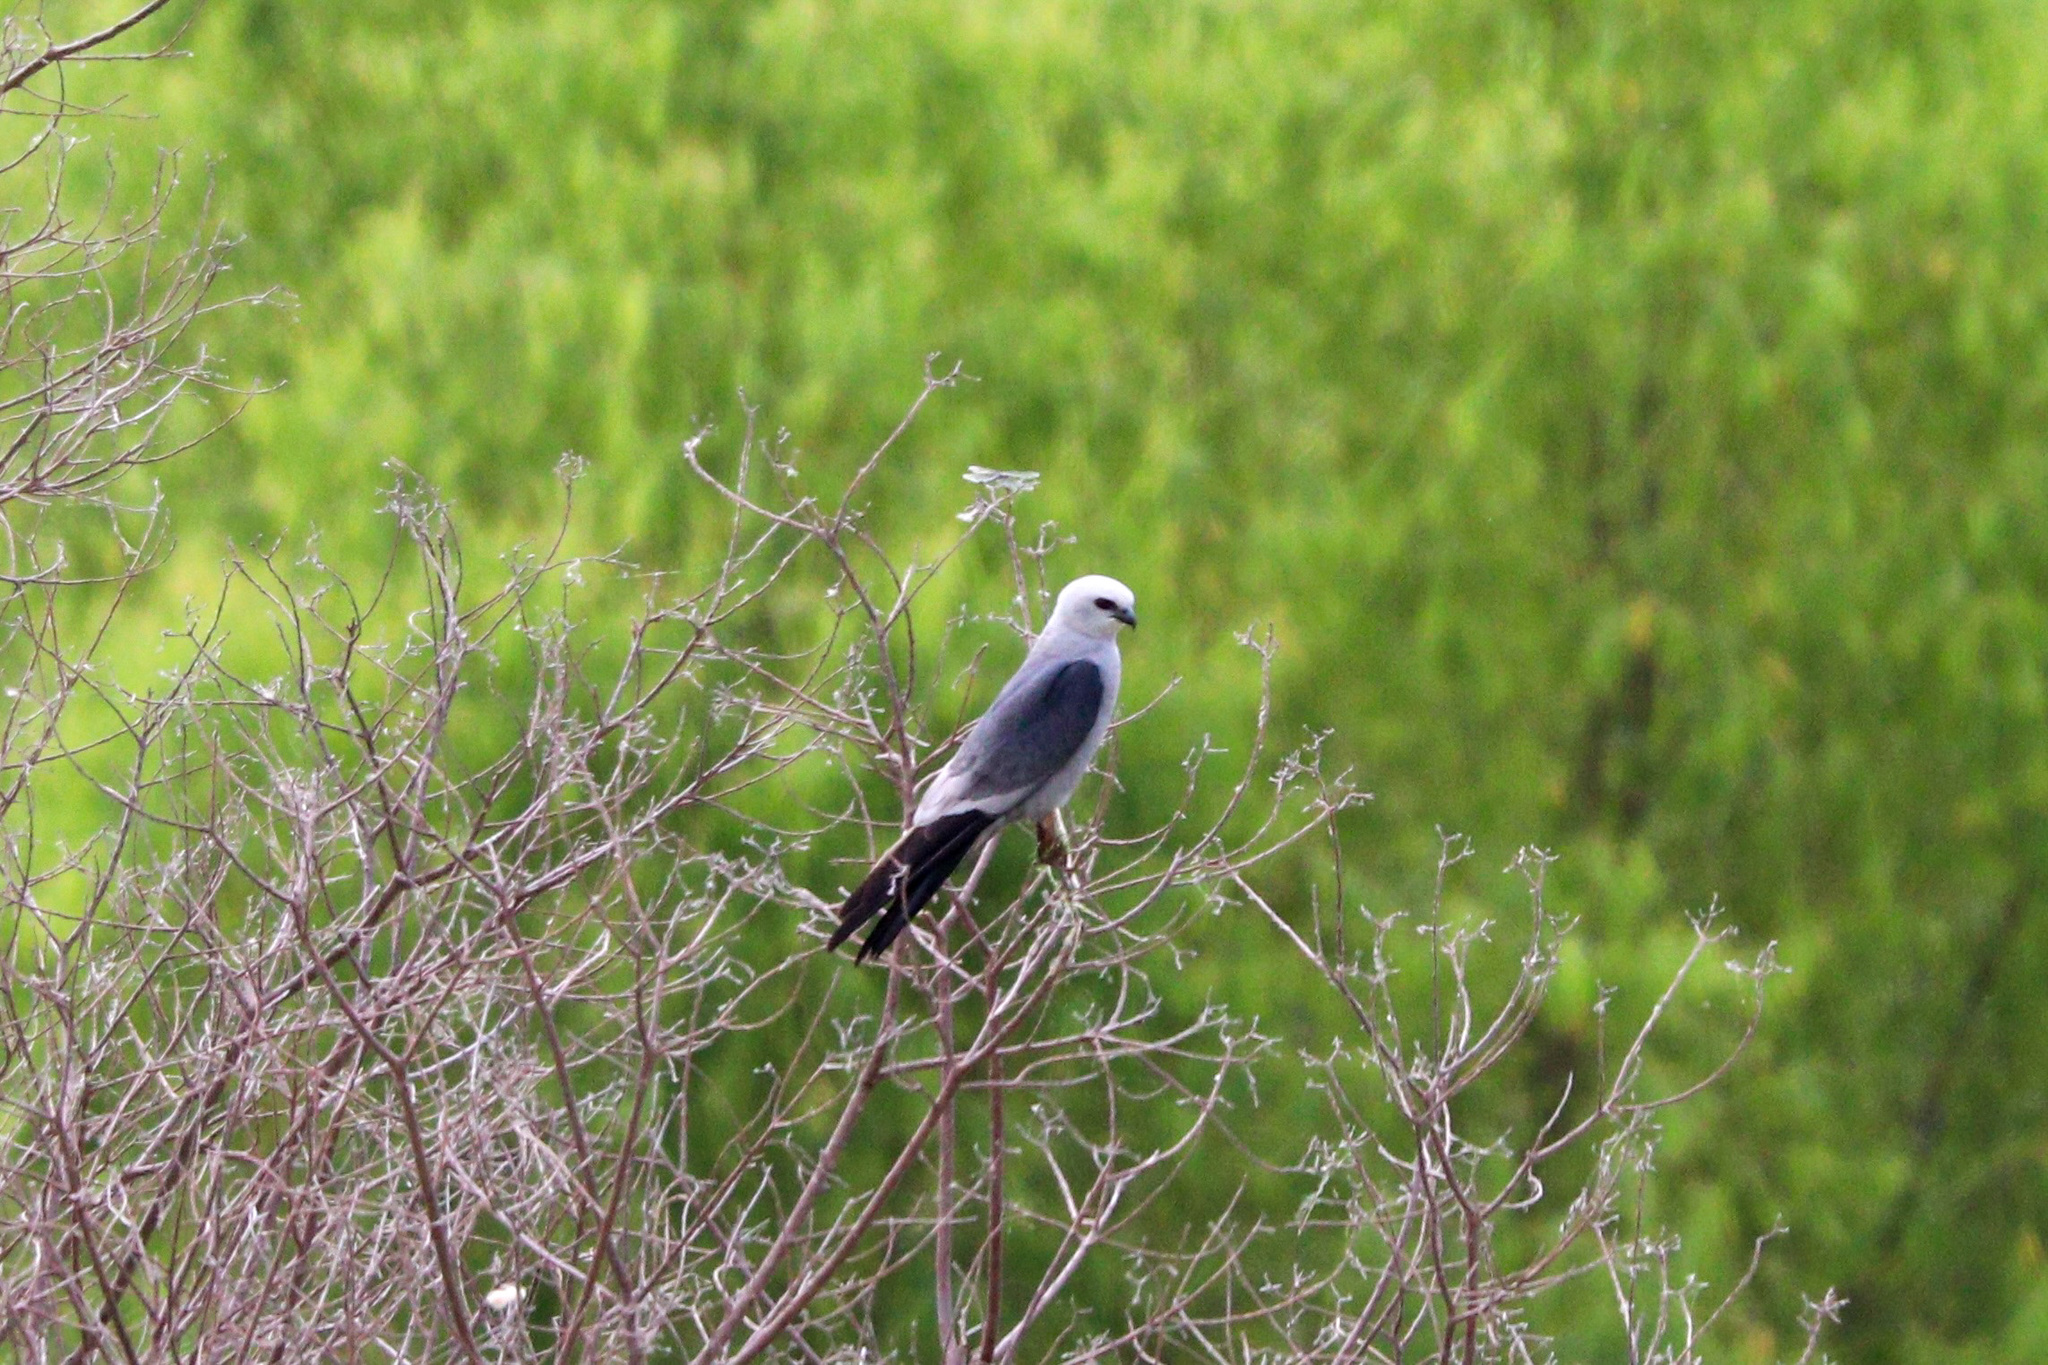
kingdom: Animalia
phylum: Chordata
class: Aves
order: Accipitriformes
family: Accipitridae
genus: Ictinia
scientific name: Ictinia mississippiensis
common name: Mississippi kite
